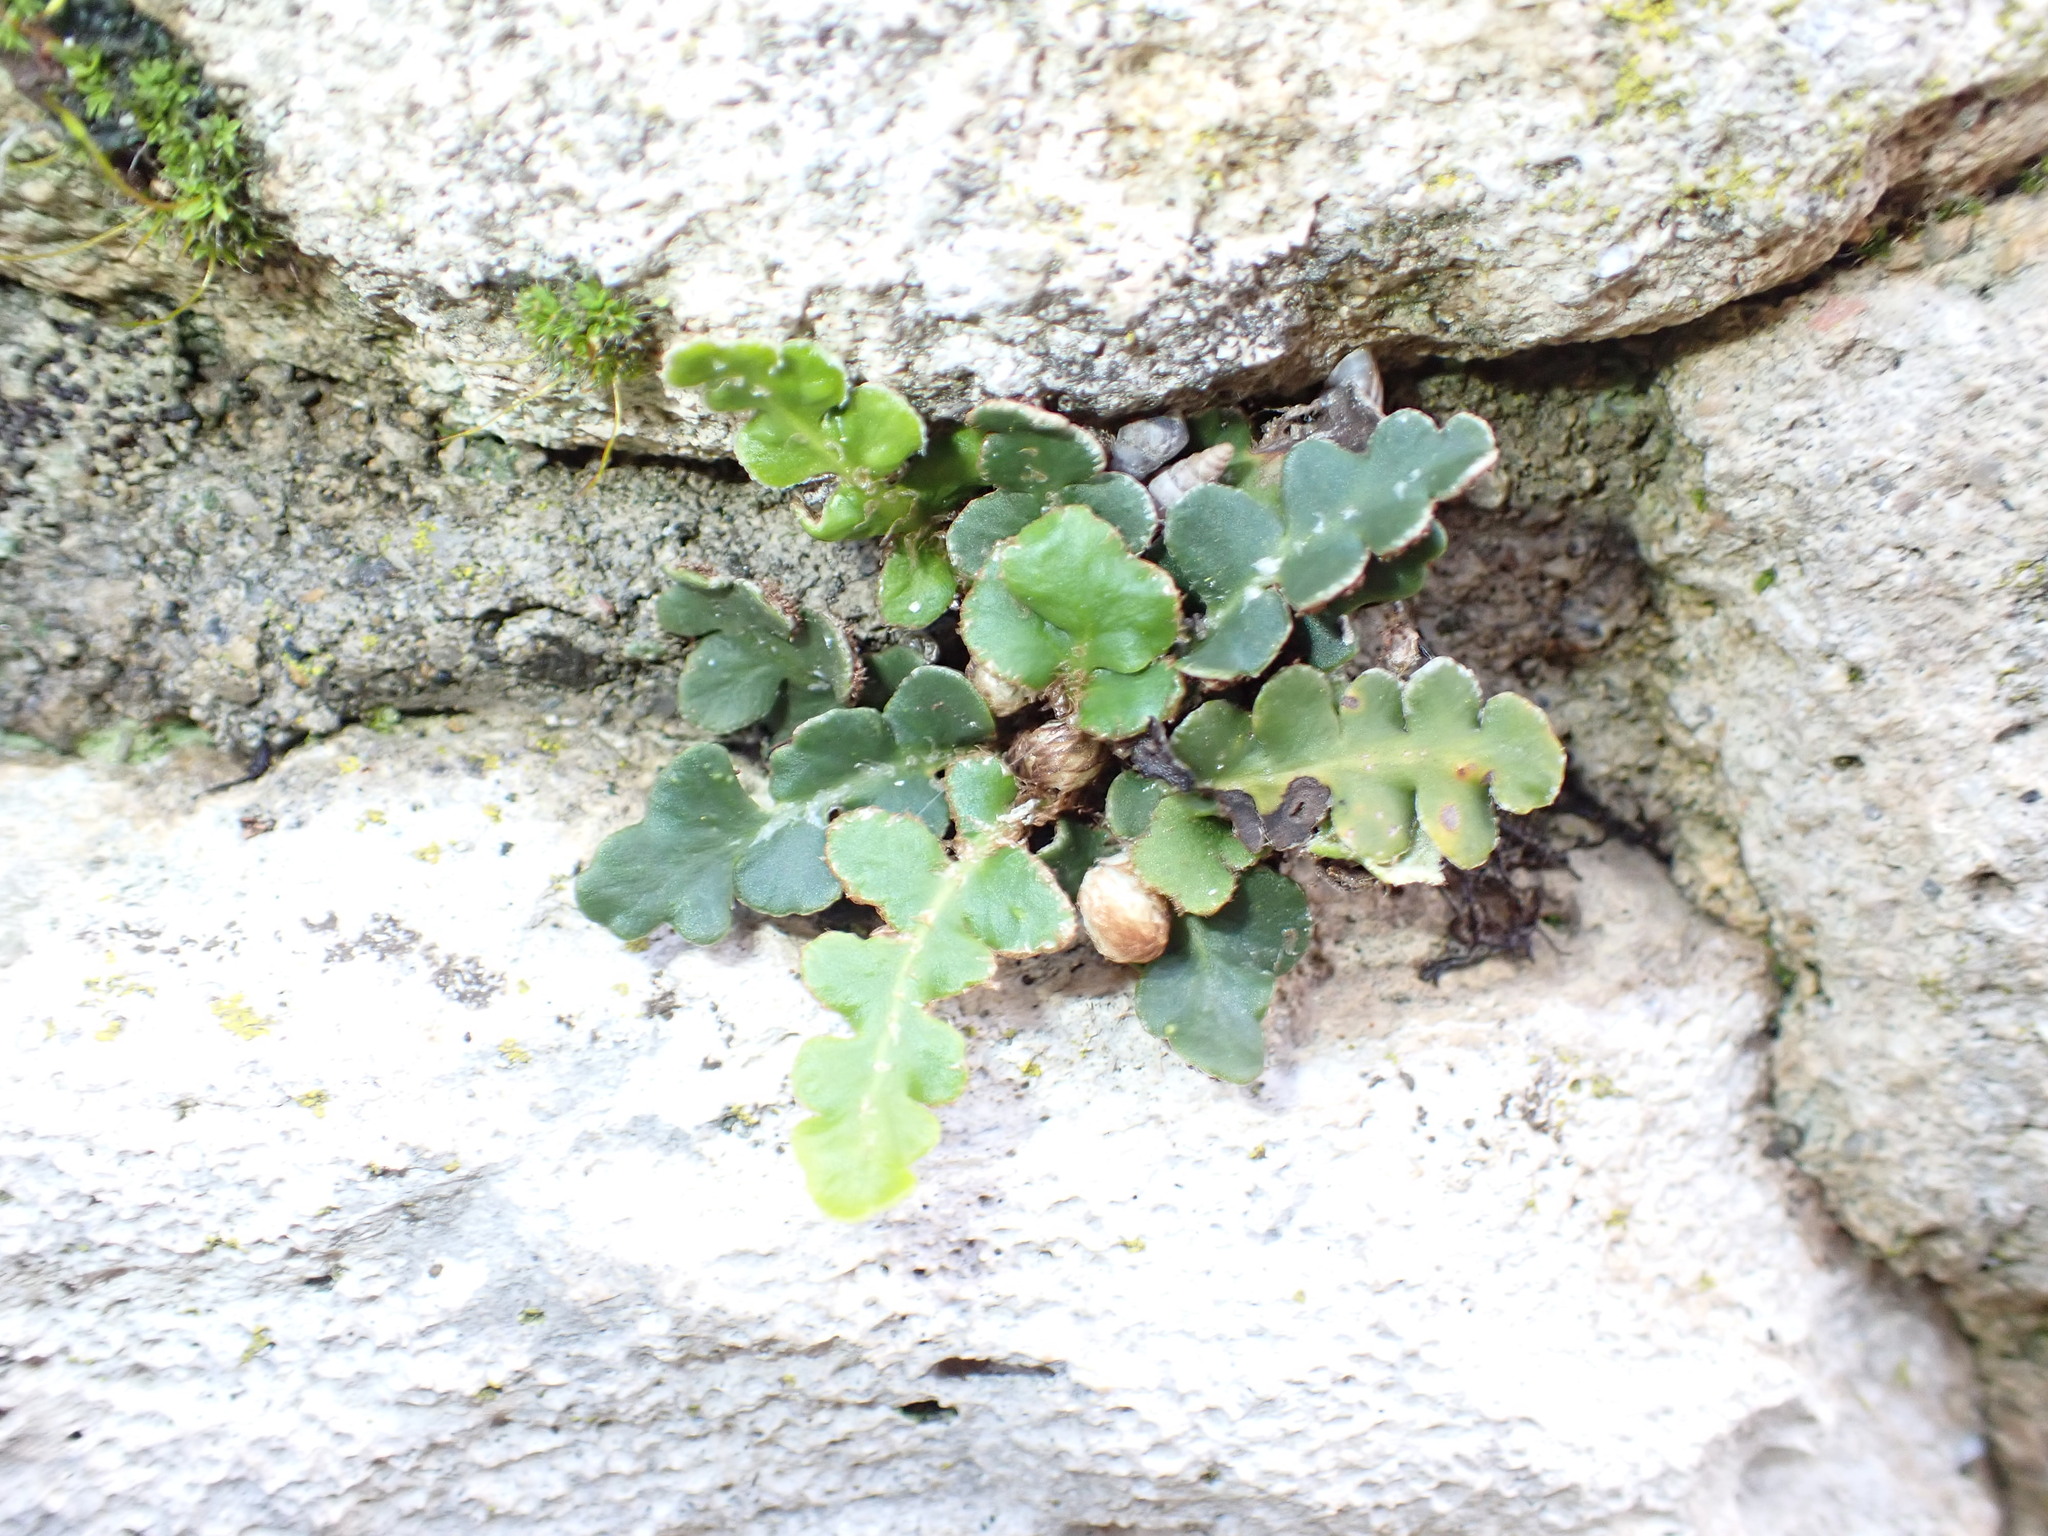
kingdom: Plantae
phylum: Tracheophyta
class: Polypodiopsida
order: Polypodiales
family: Aspleniaceae
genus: Asplenium
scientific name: Asplenium ceterach
